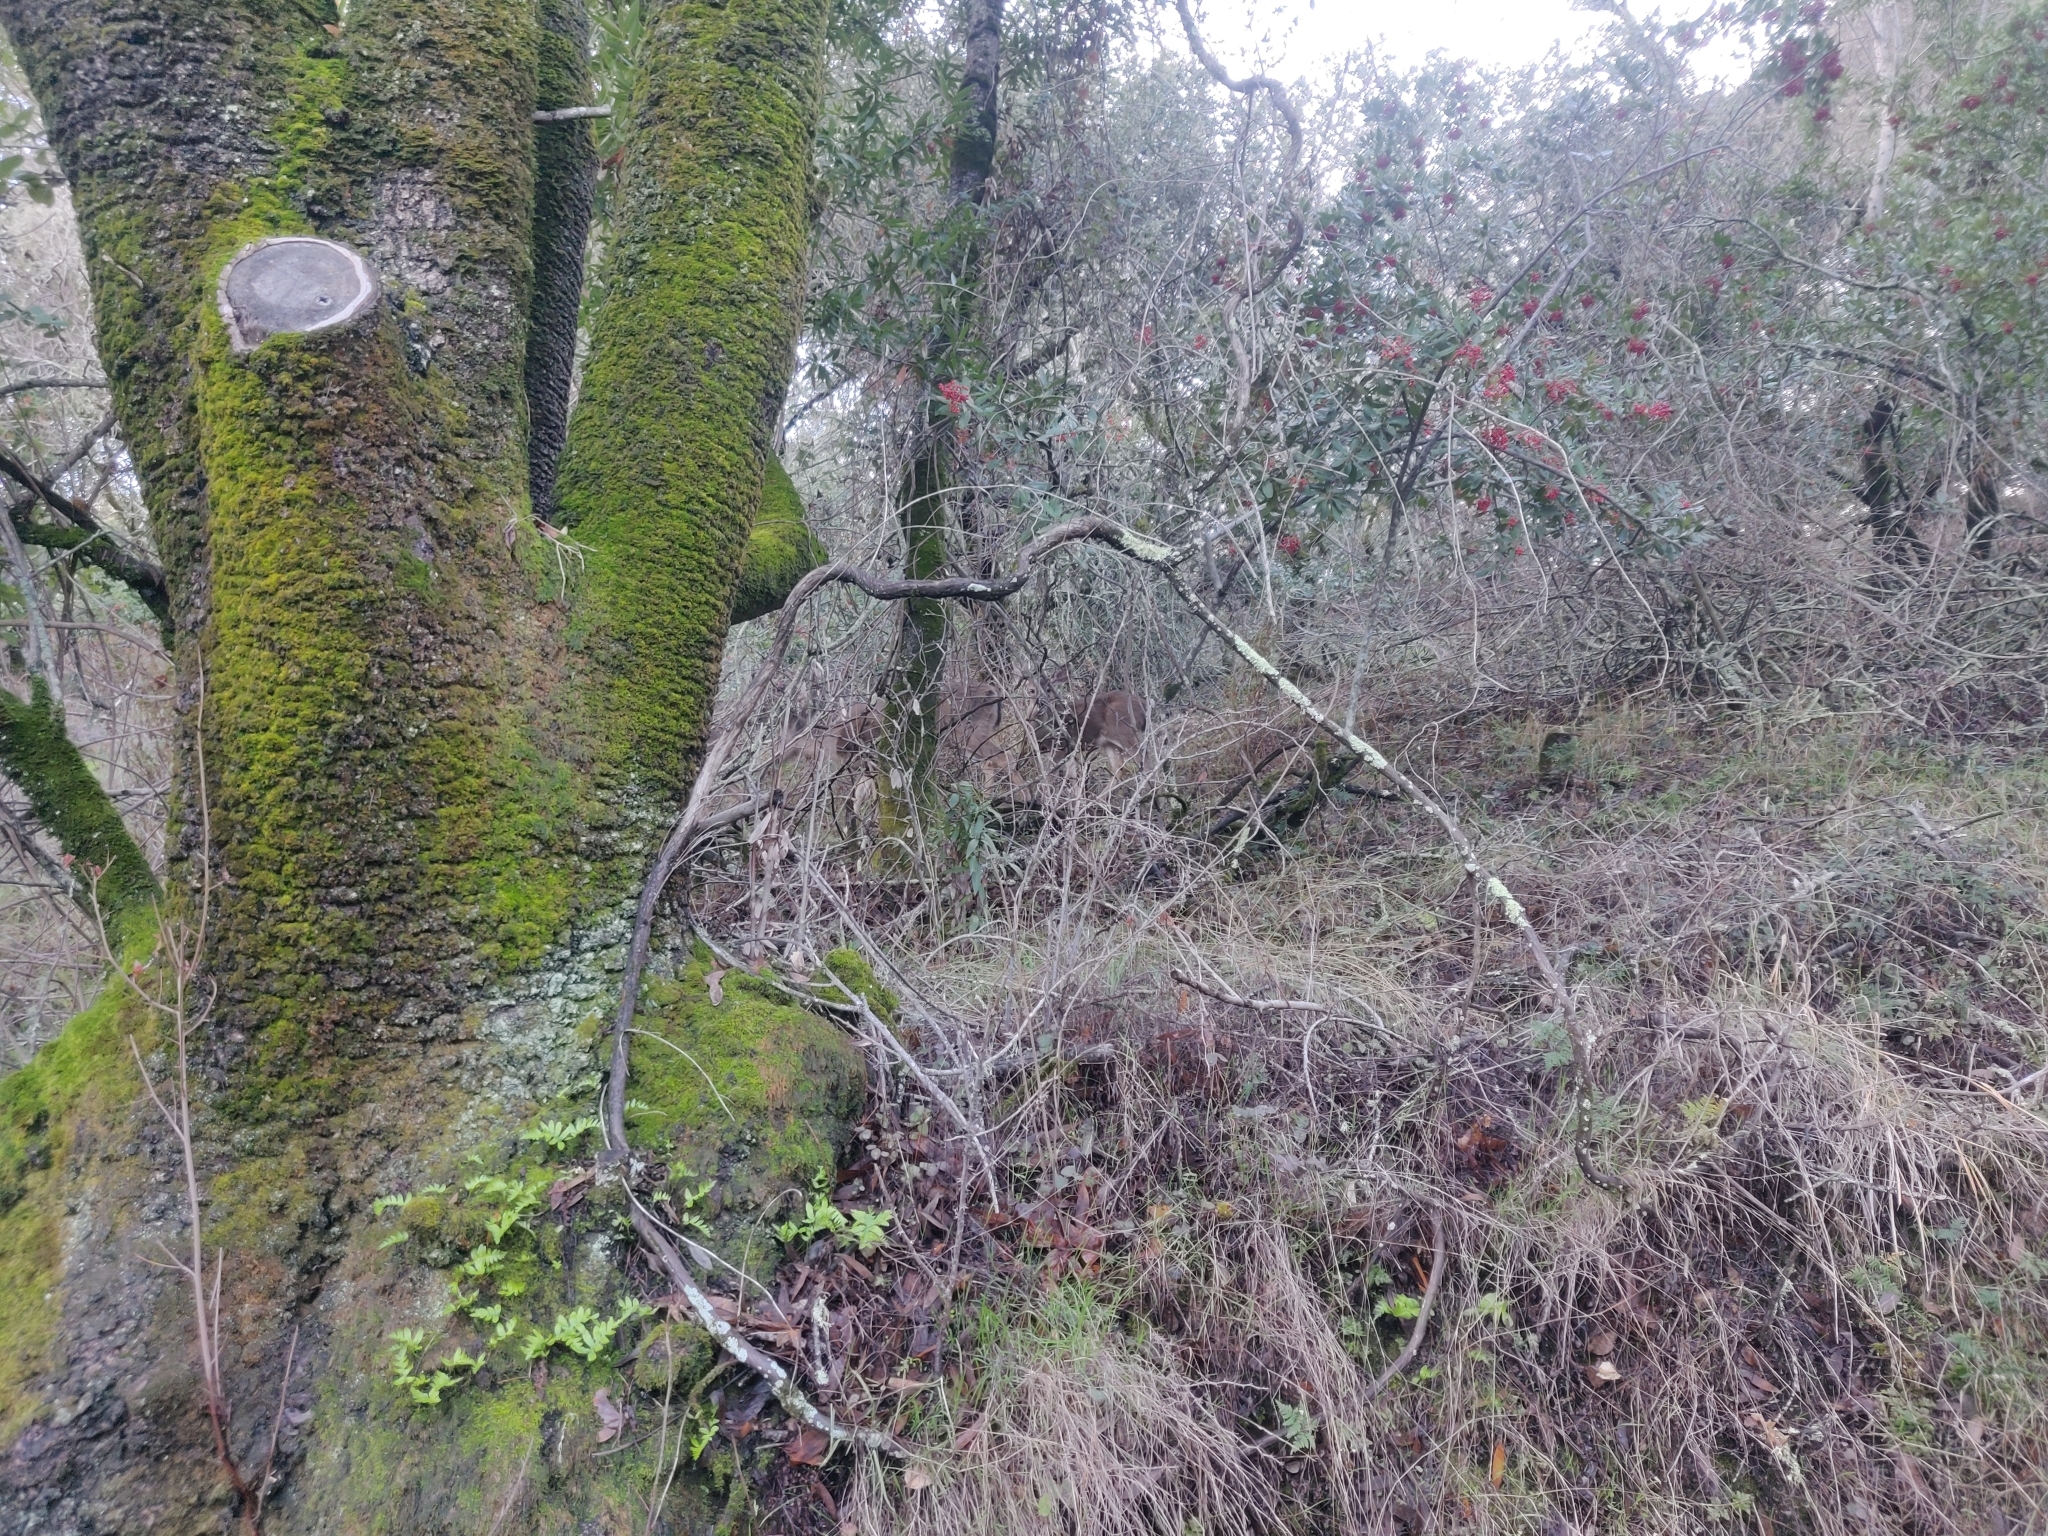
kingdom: Animalia
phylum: Chordata
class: Mammalia
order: Artiodactyla
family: Cervidae
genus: Odocoileus
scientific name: Odocoileus hemionus
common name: Mule deer
